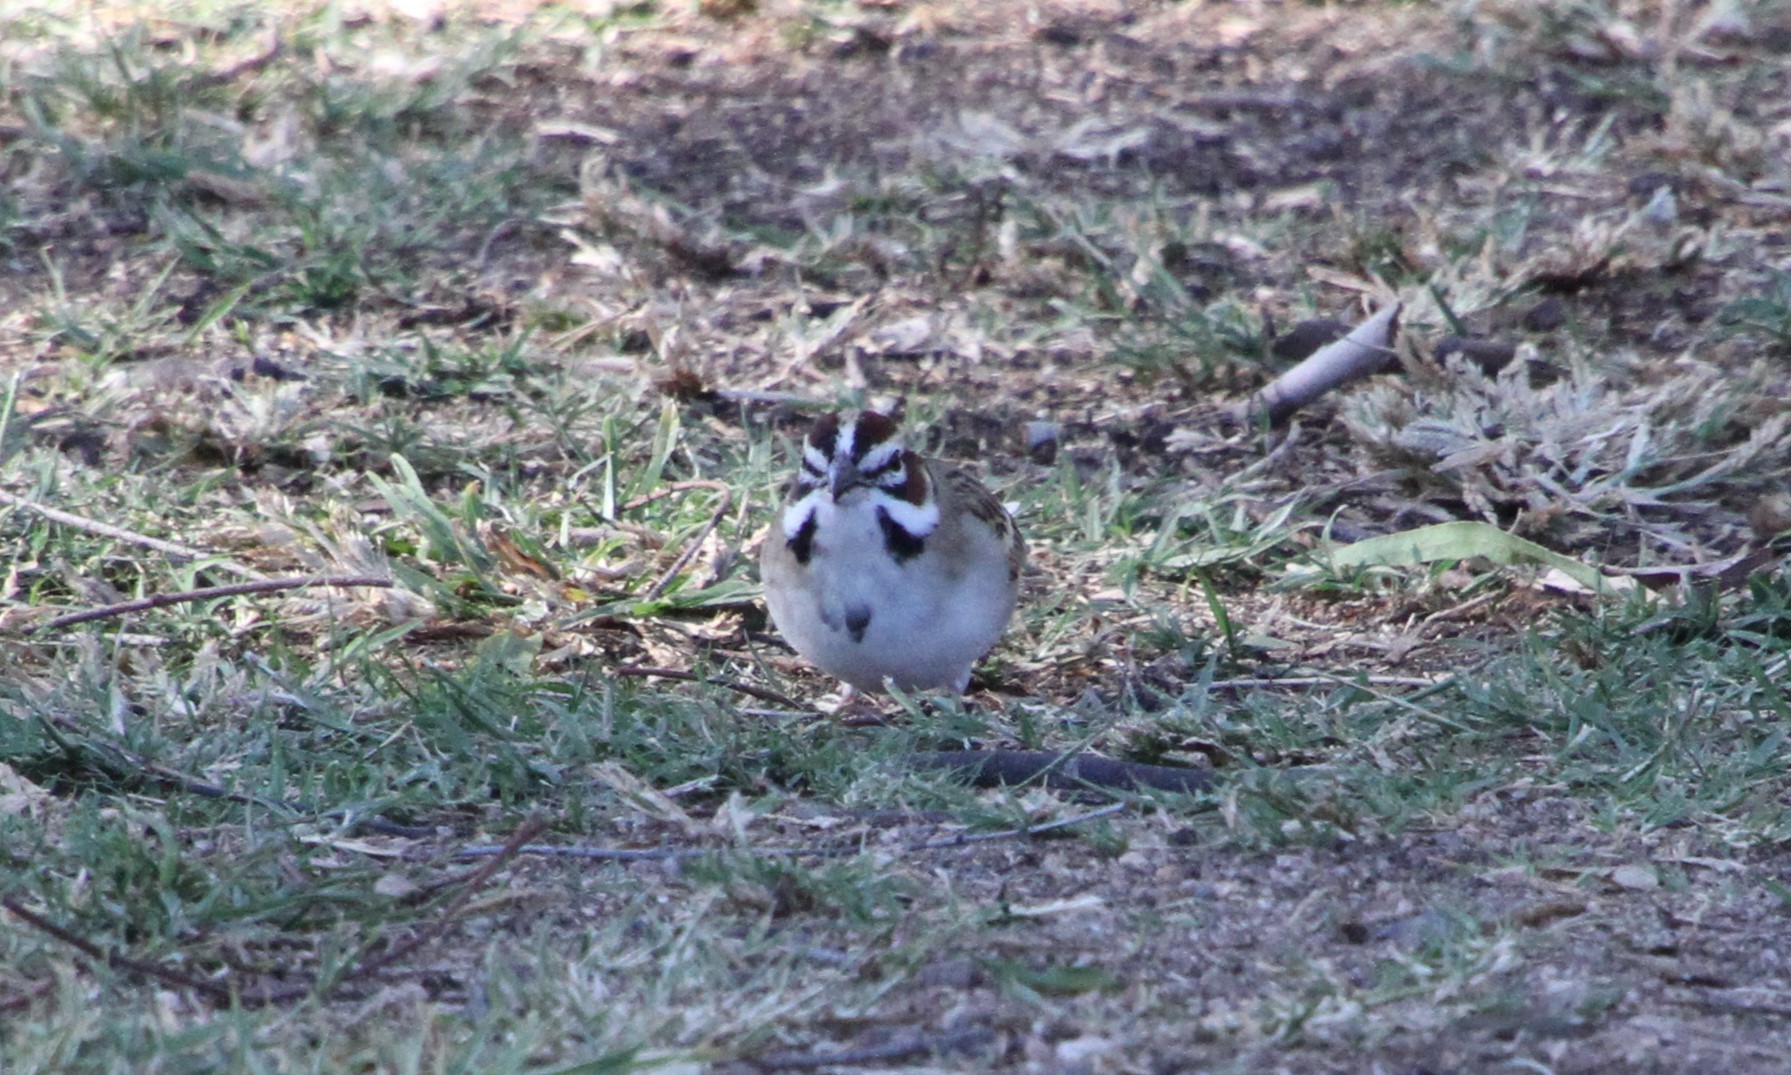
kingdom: Animalia
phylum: Chordata
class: Aves
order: Passeriformes
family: Passerellidae
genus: Chondestes
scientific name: Chondestes grammacus
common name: Lark sparrow
